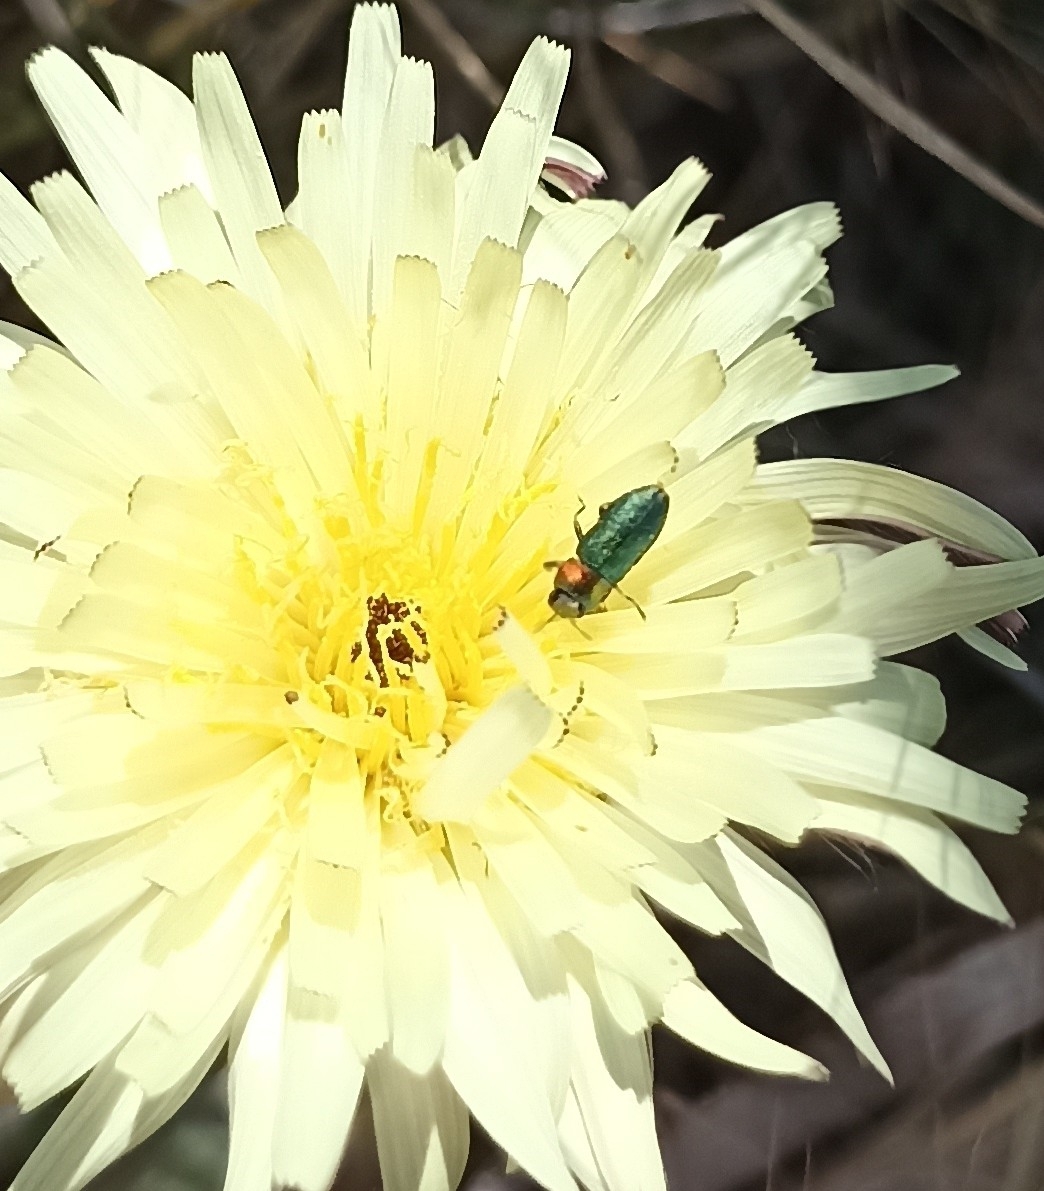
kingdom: Animalia
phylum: Arthropoda
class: Insecta
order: Coleoptera
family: Buprestidae
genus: Anthaxia
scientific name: Anthaxia nitidula
